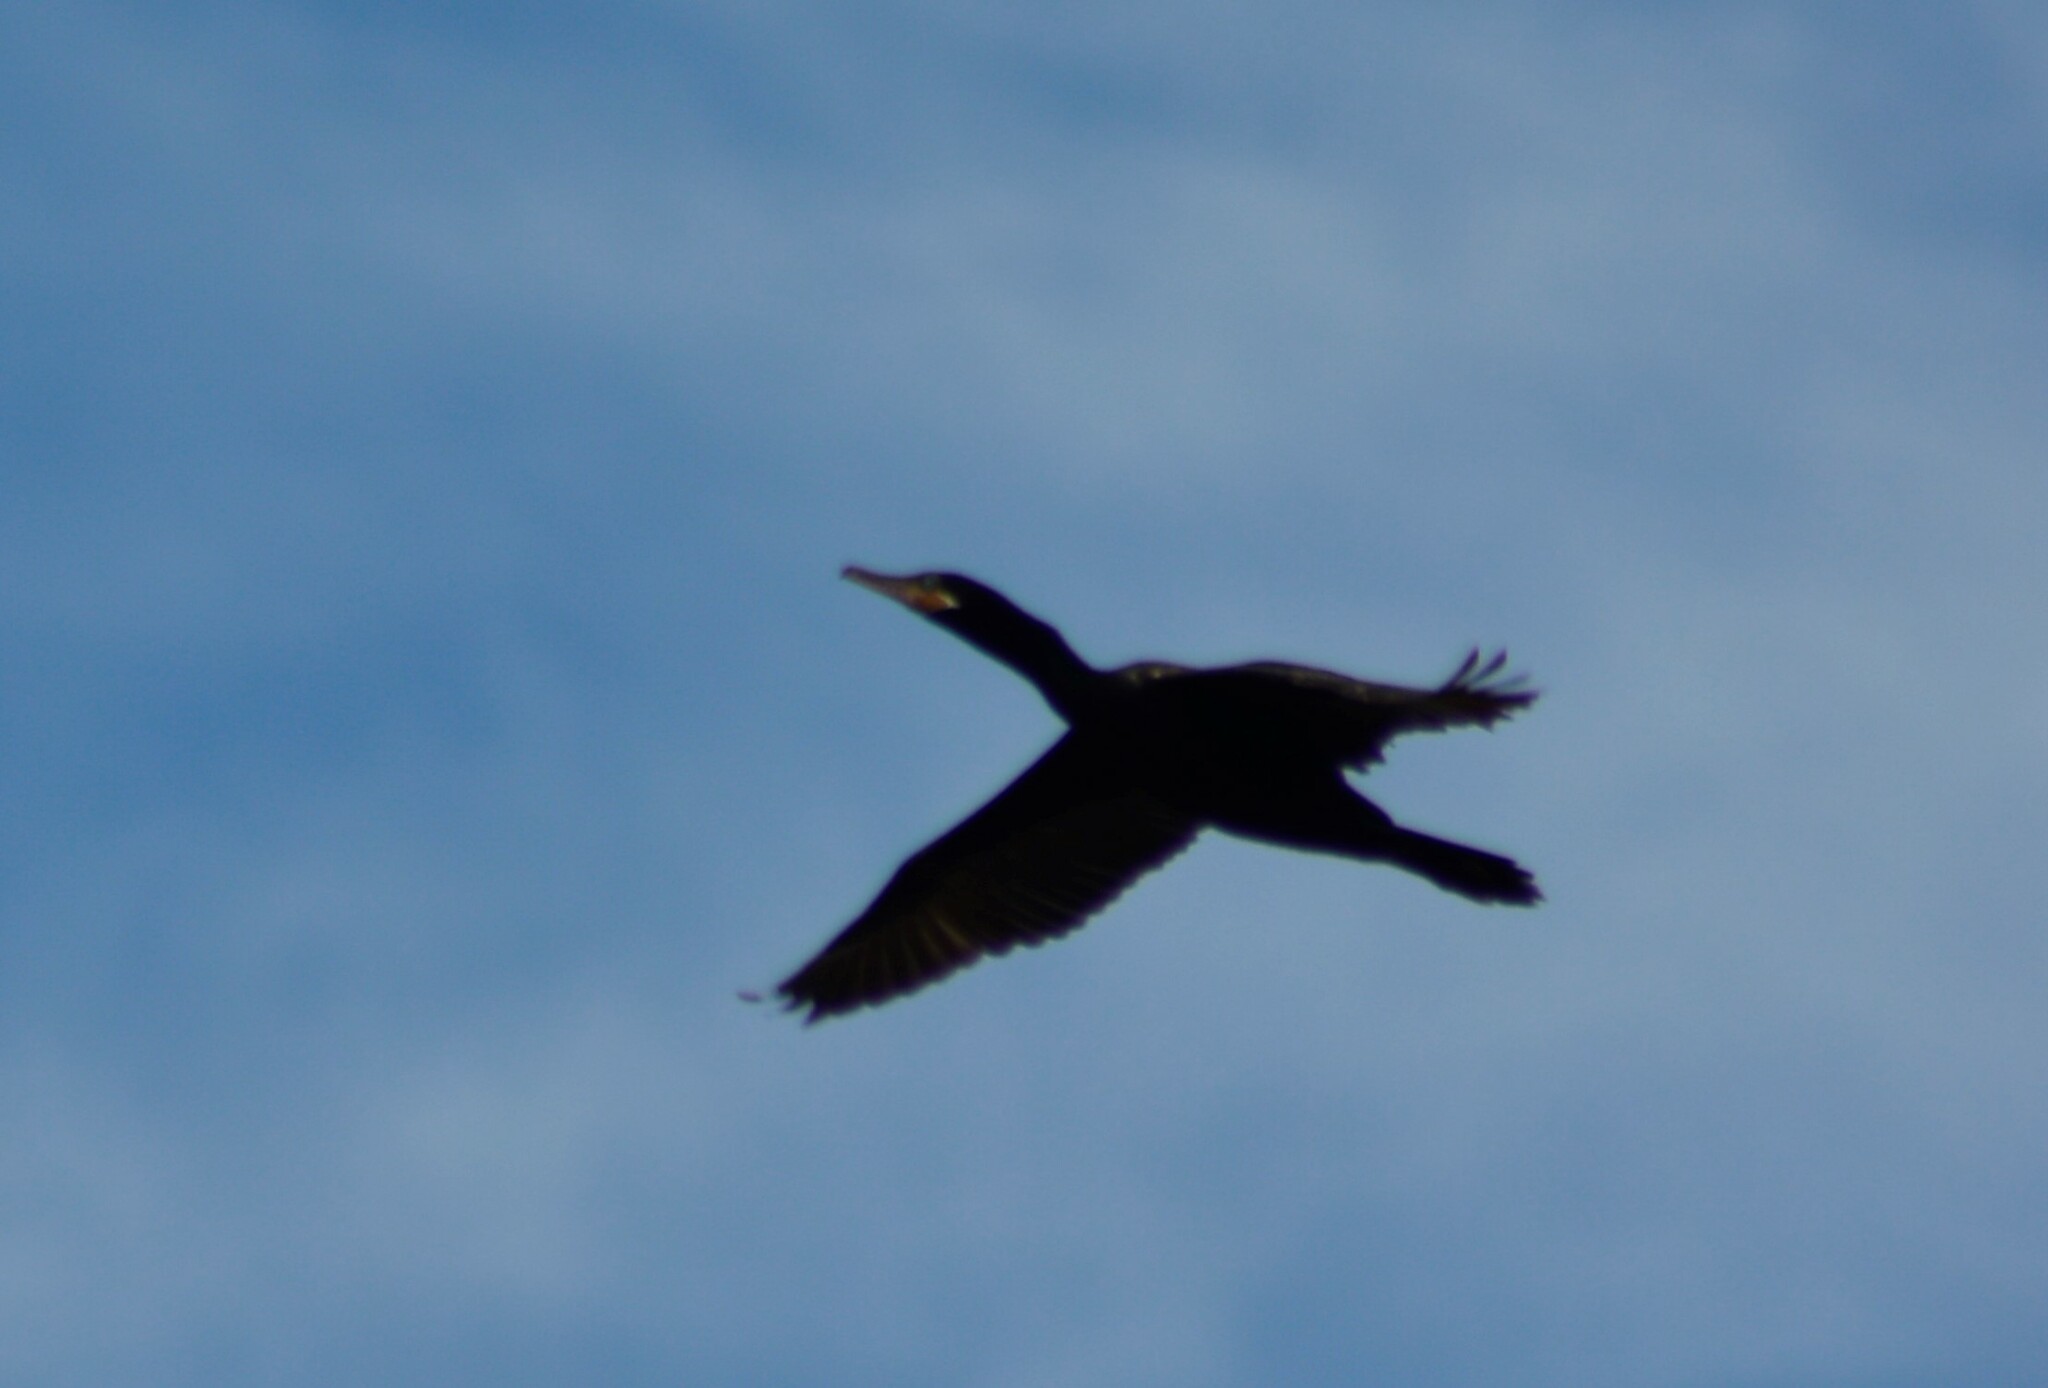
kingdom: Animalia
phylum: Chordata
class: Aves
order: Suliformes
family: Phalacrocoracidae
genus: Phalacrocorax
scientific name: Phalacrocorax brasilianus
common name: Neotropic cormorant
